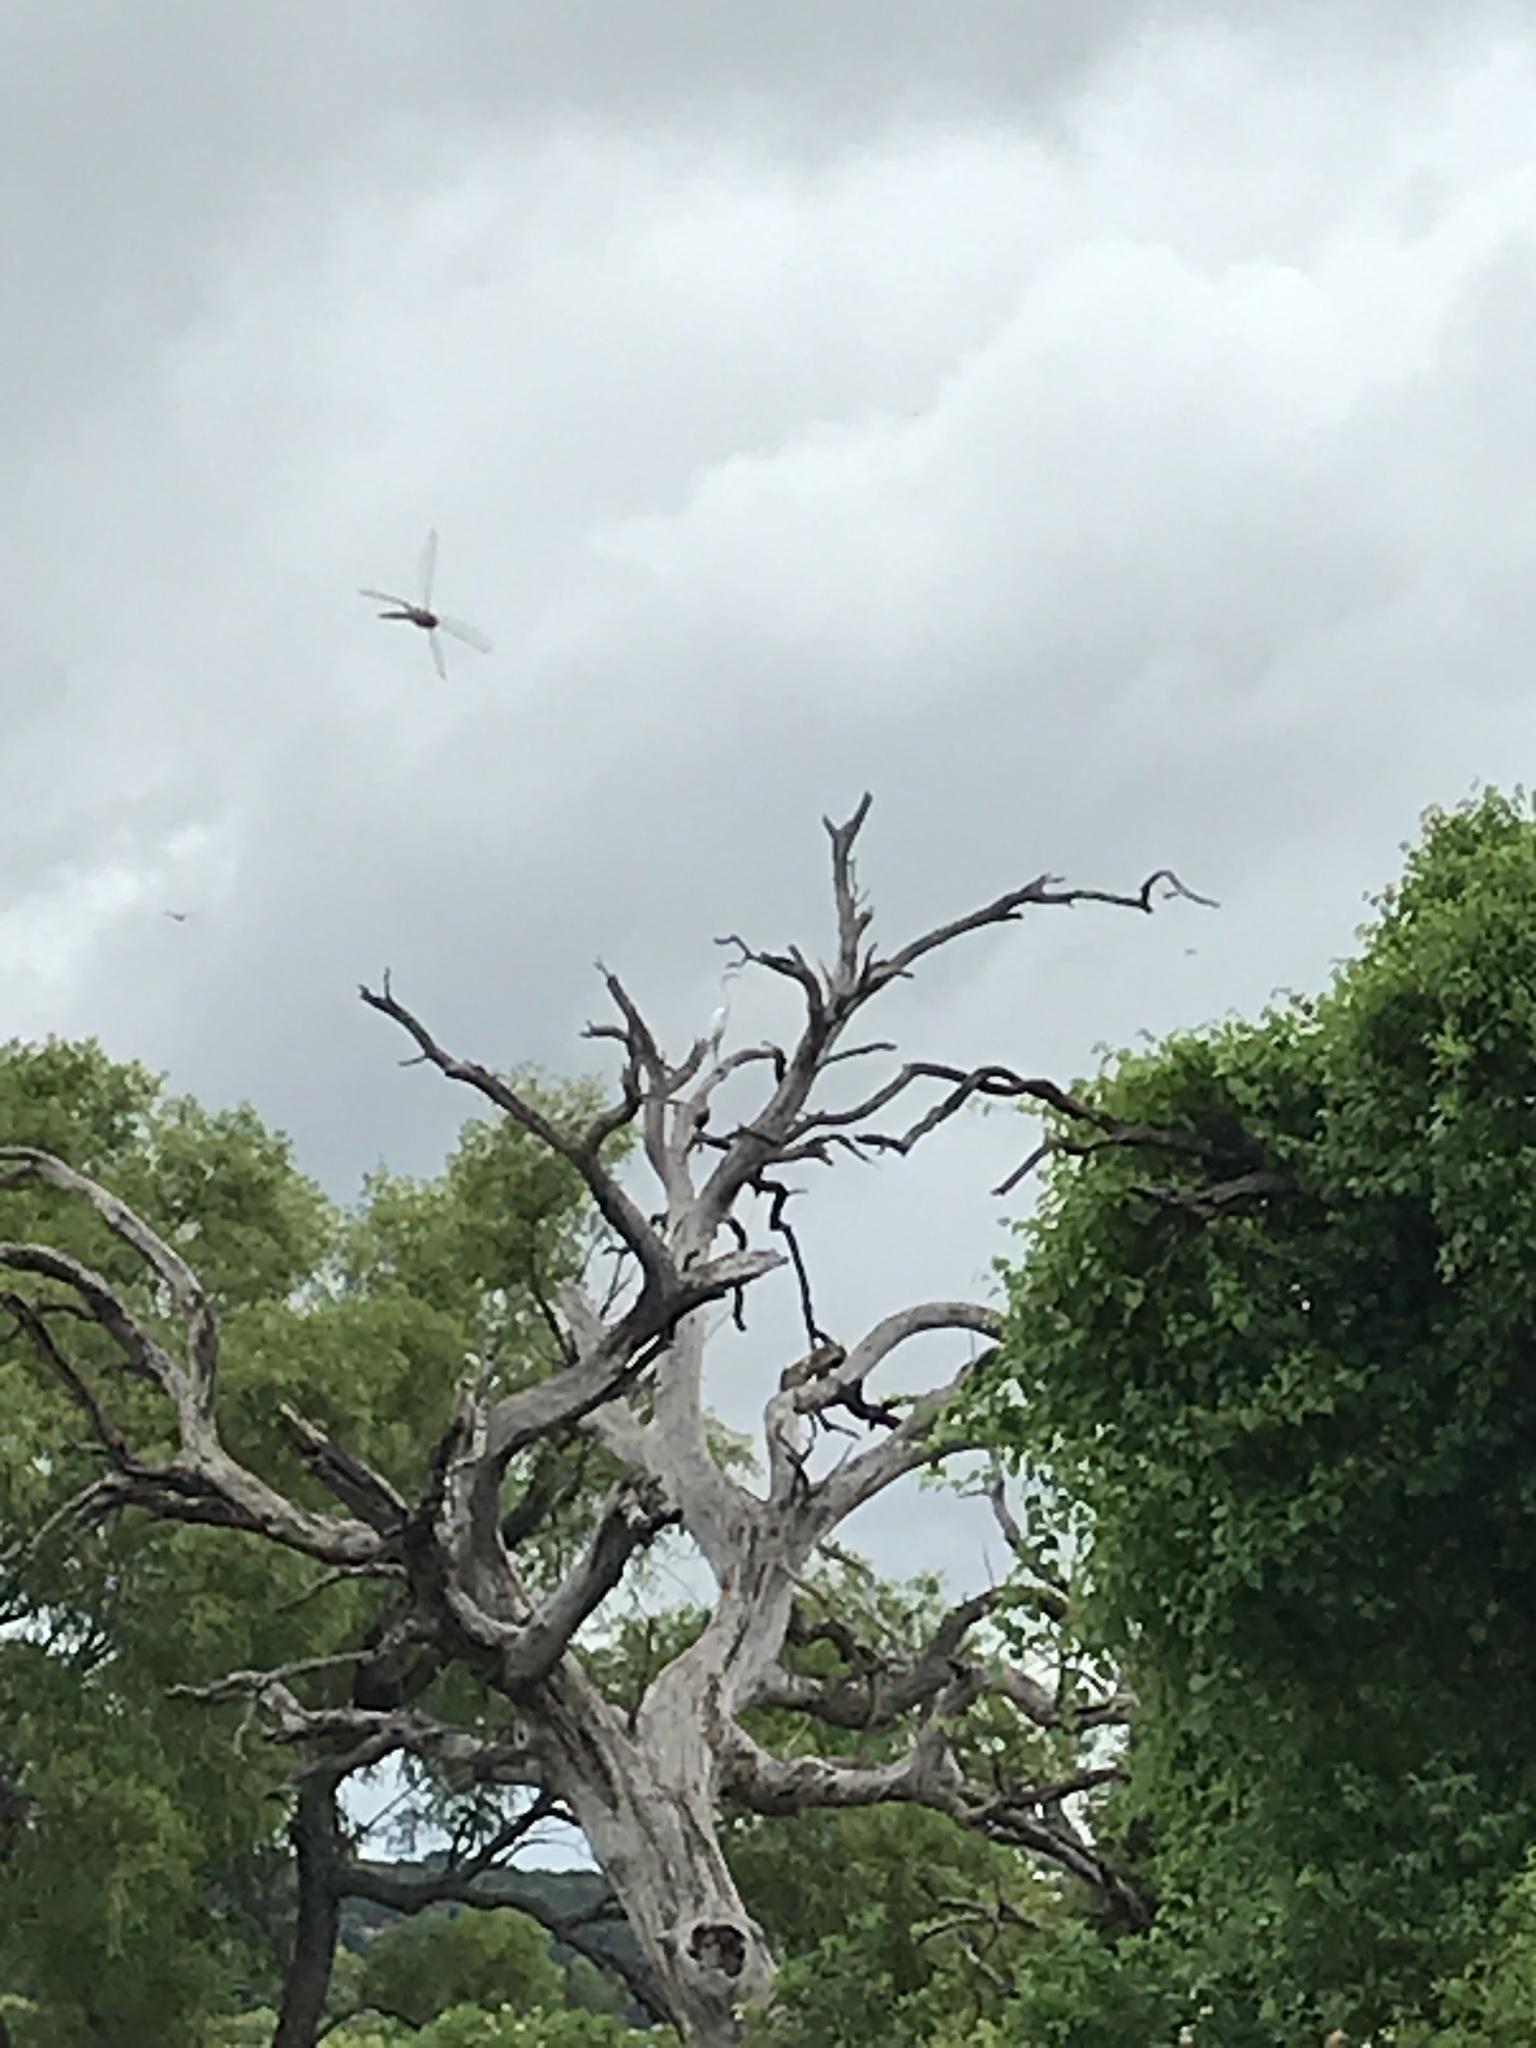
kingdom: Animalia
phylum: Chordata
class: Aves
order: Pelecaniformes
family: Ardeidae
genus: Ardea
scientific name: Ardea alba
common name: Great egret
